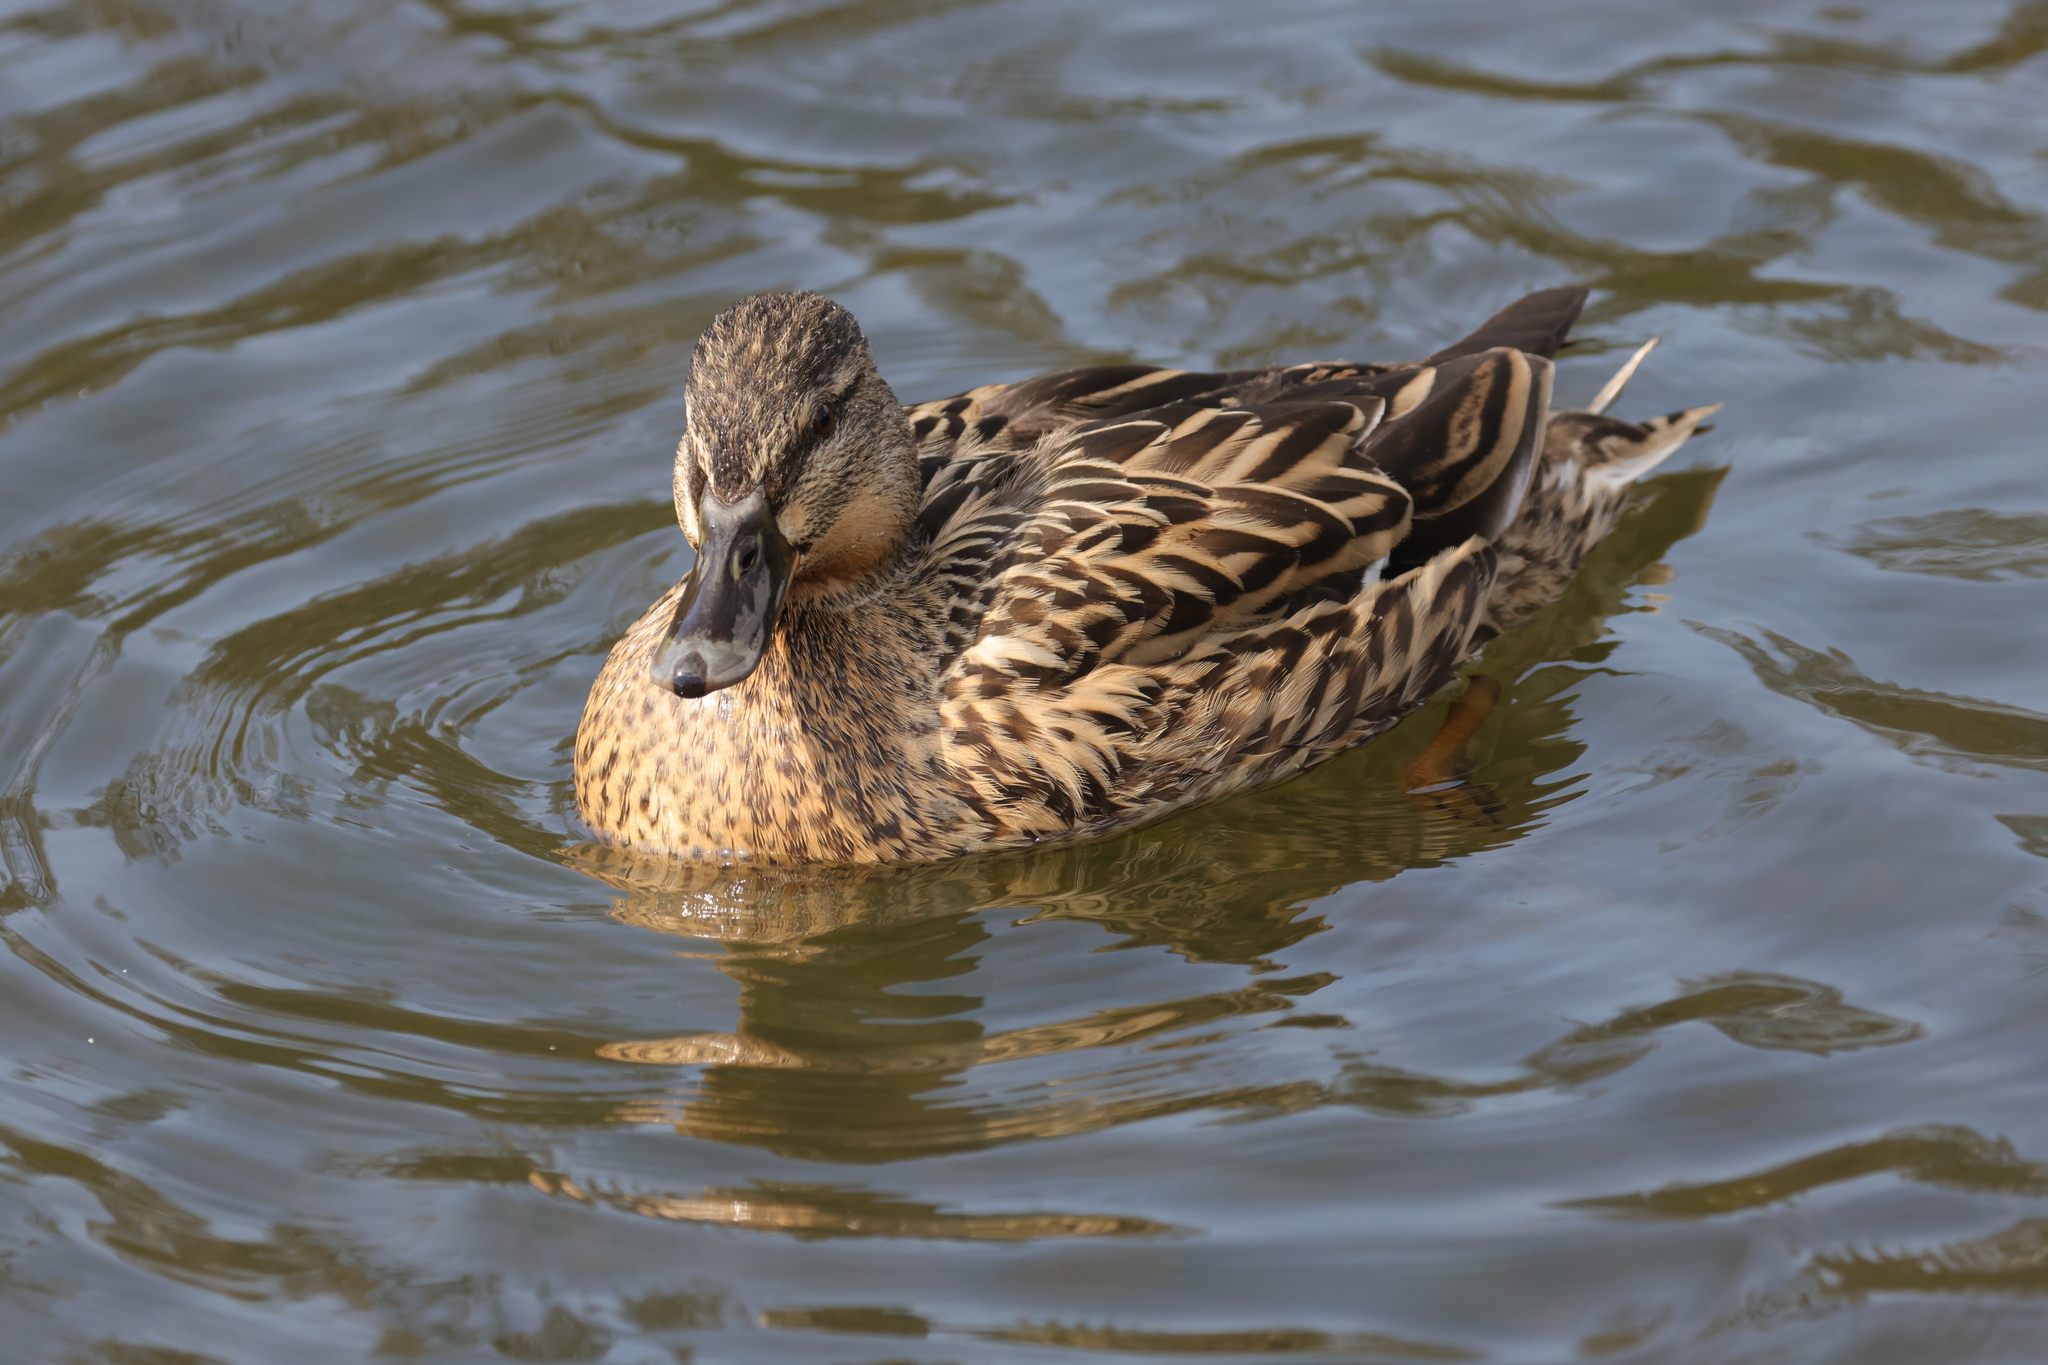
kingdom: Animalia
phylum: Chordata
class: Aves
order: Anseriformes
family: Anatidae
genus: Anas
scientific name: Anas platyrhynchos
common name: Mallard
